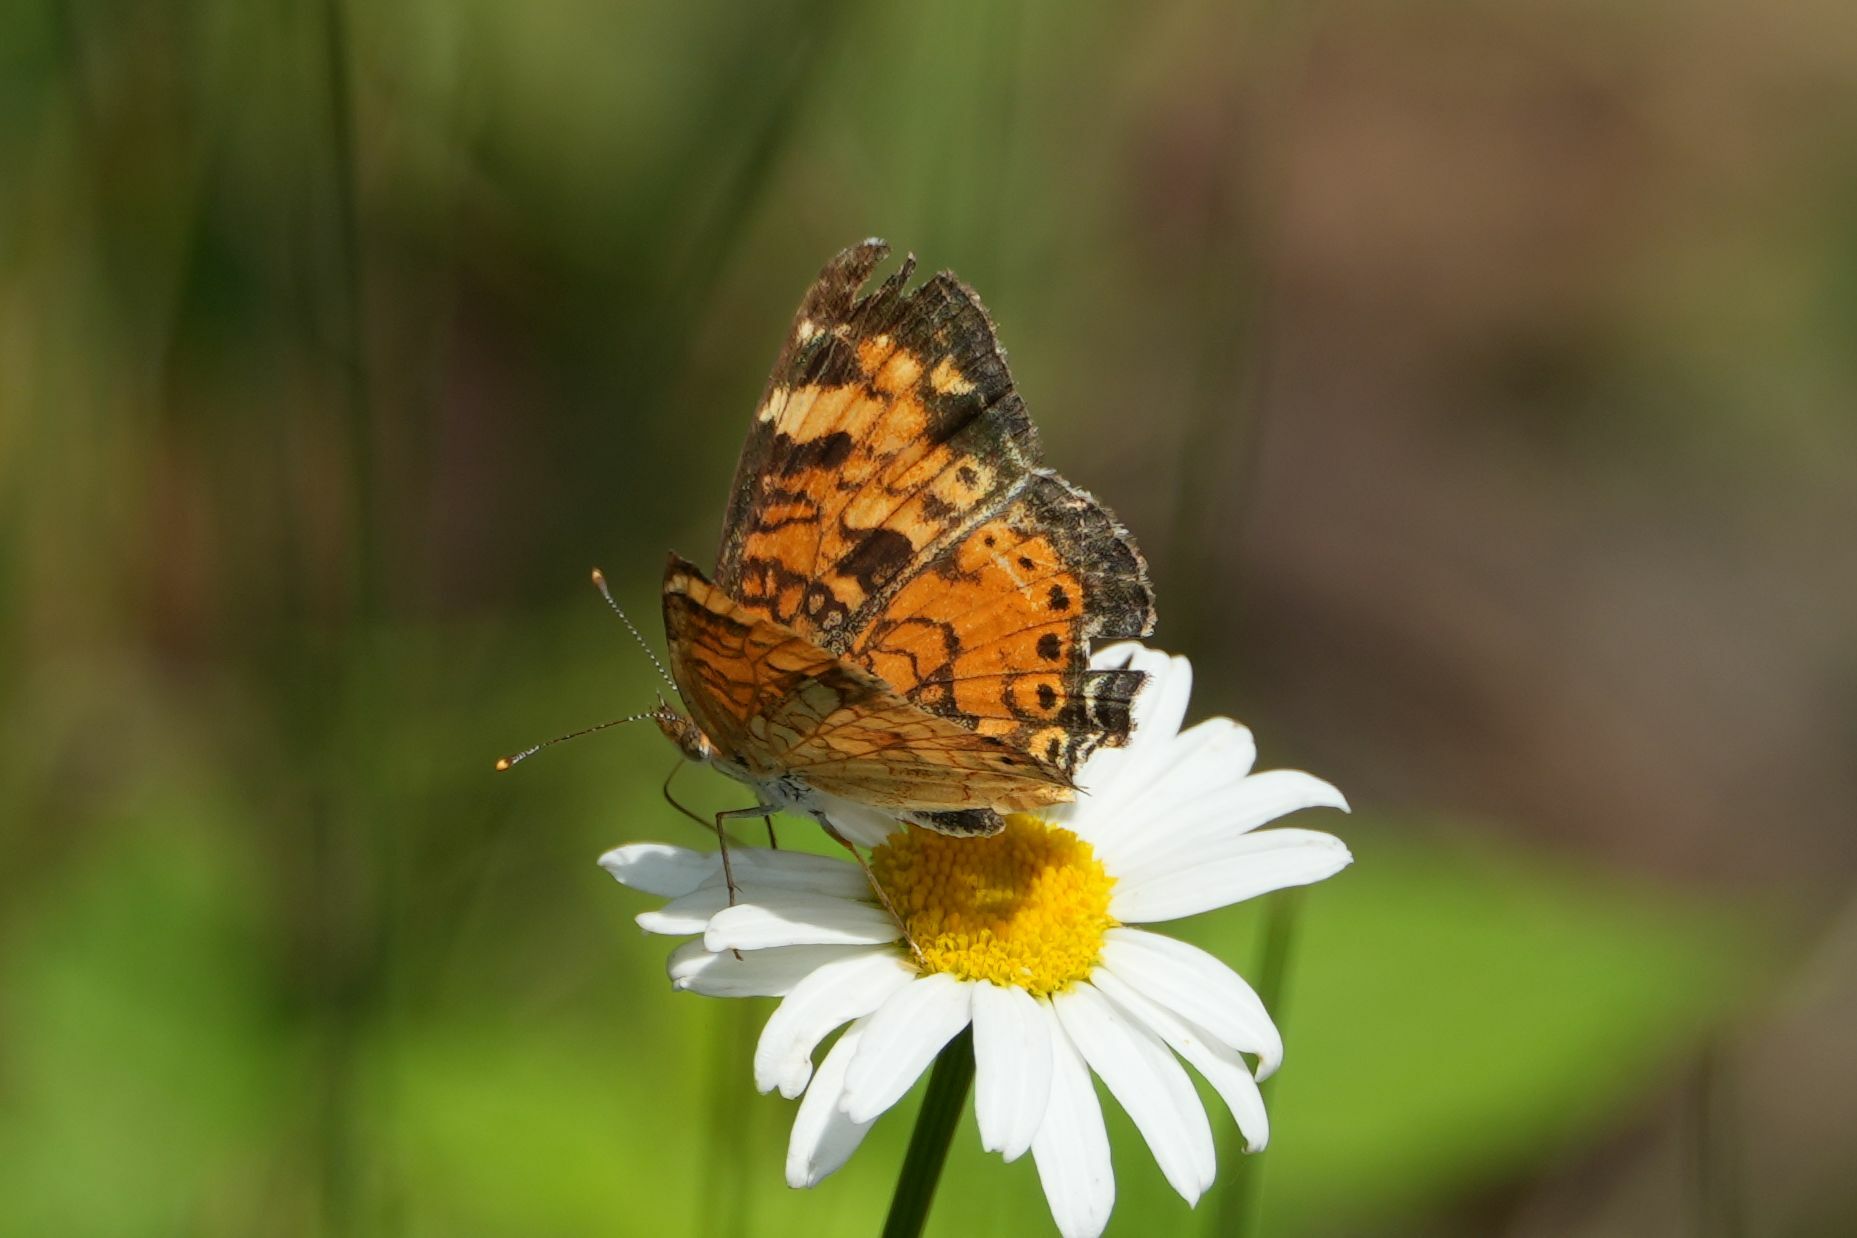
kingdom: Animalia
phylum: Arthropoda
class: Insecta
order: Lepidoptera
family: Nymphalidae
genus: Phyciodes
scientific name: Phyciodes tharos
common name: Pearl crescent
